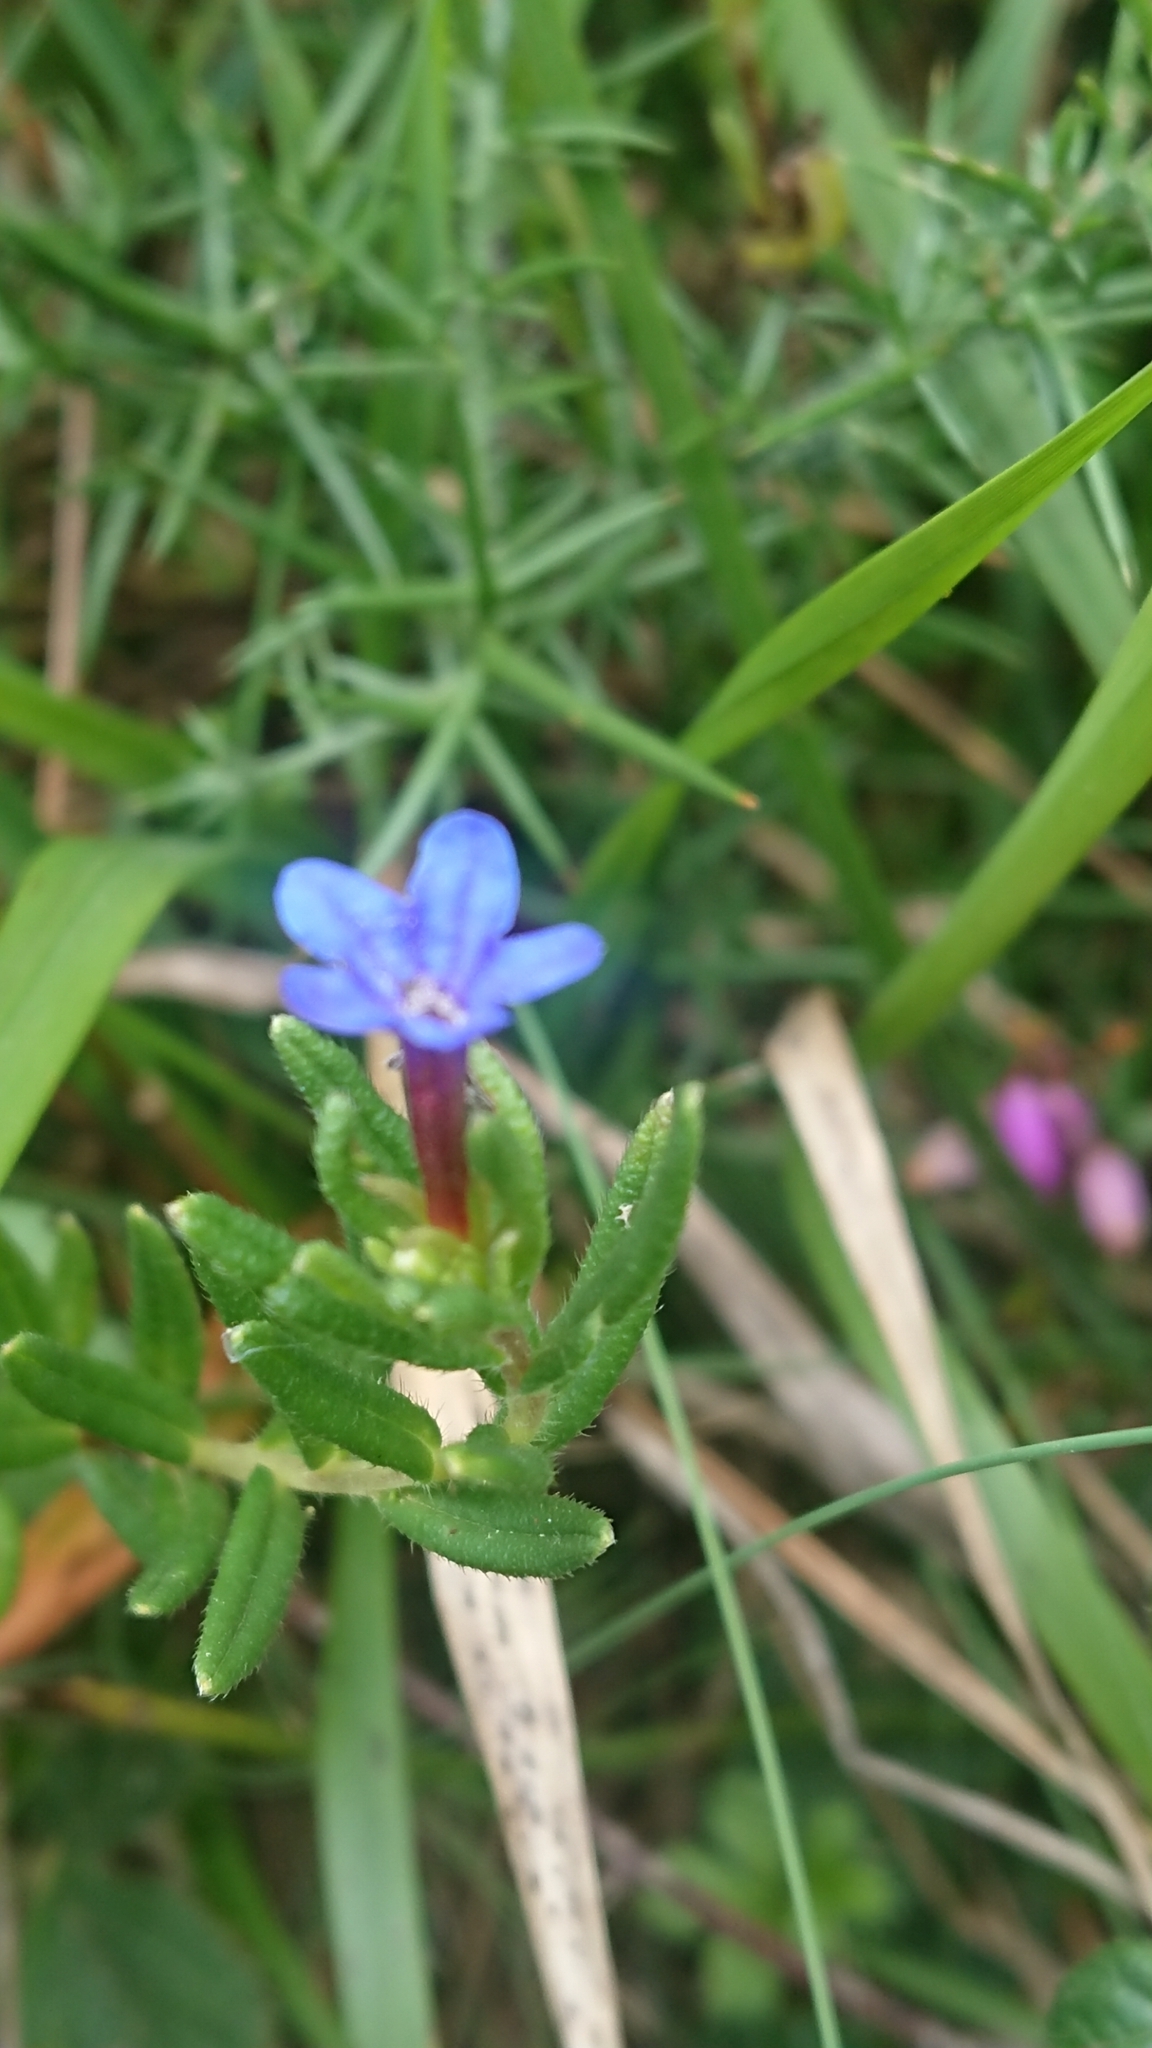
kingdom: Plantae
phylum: Tracheophyta
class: Magnoliopsida
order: Boraginales
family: Boraginaceae
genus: Glandora
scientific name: Glandora prostrata
